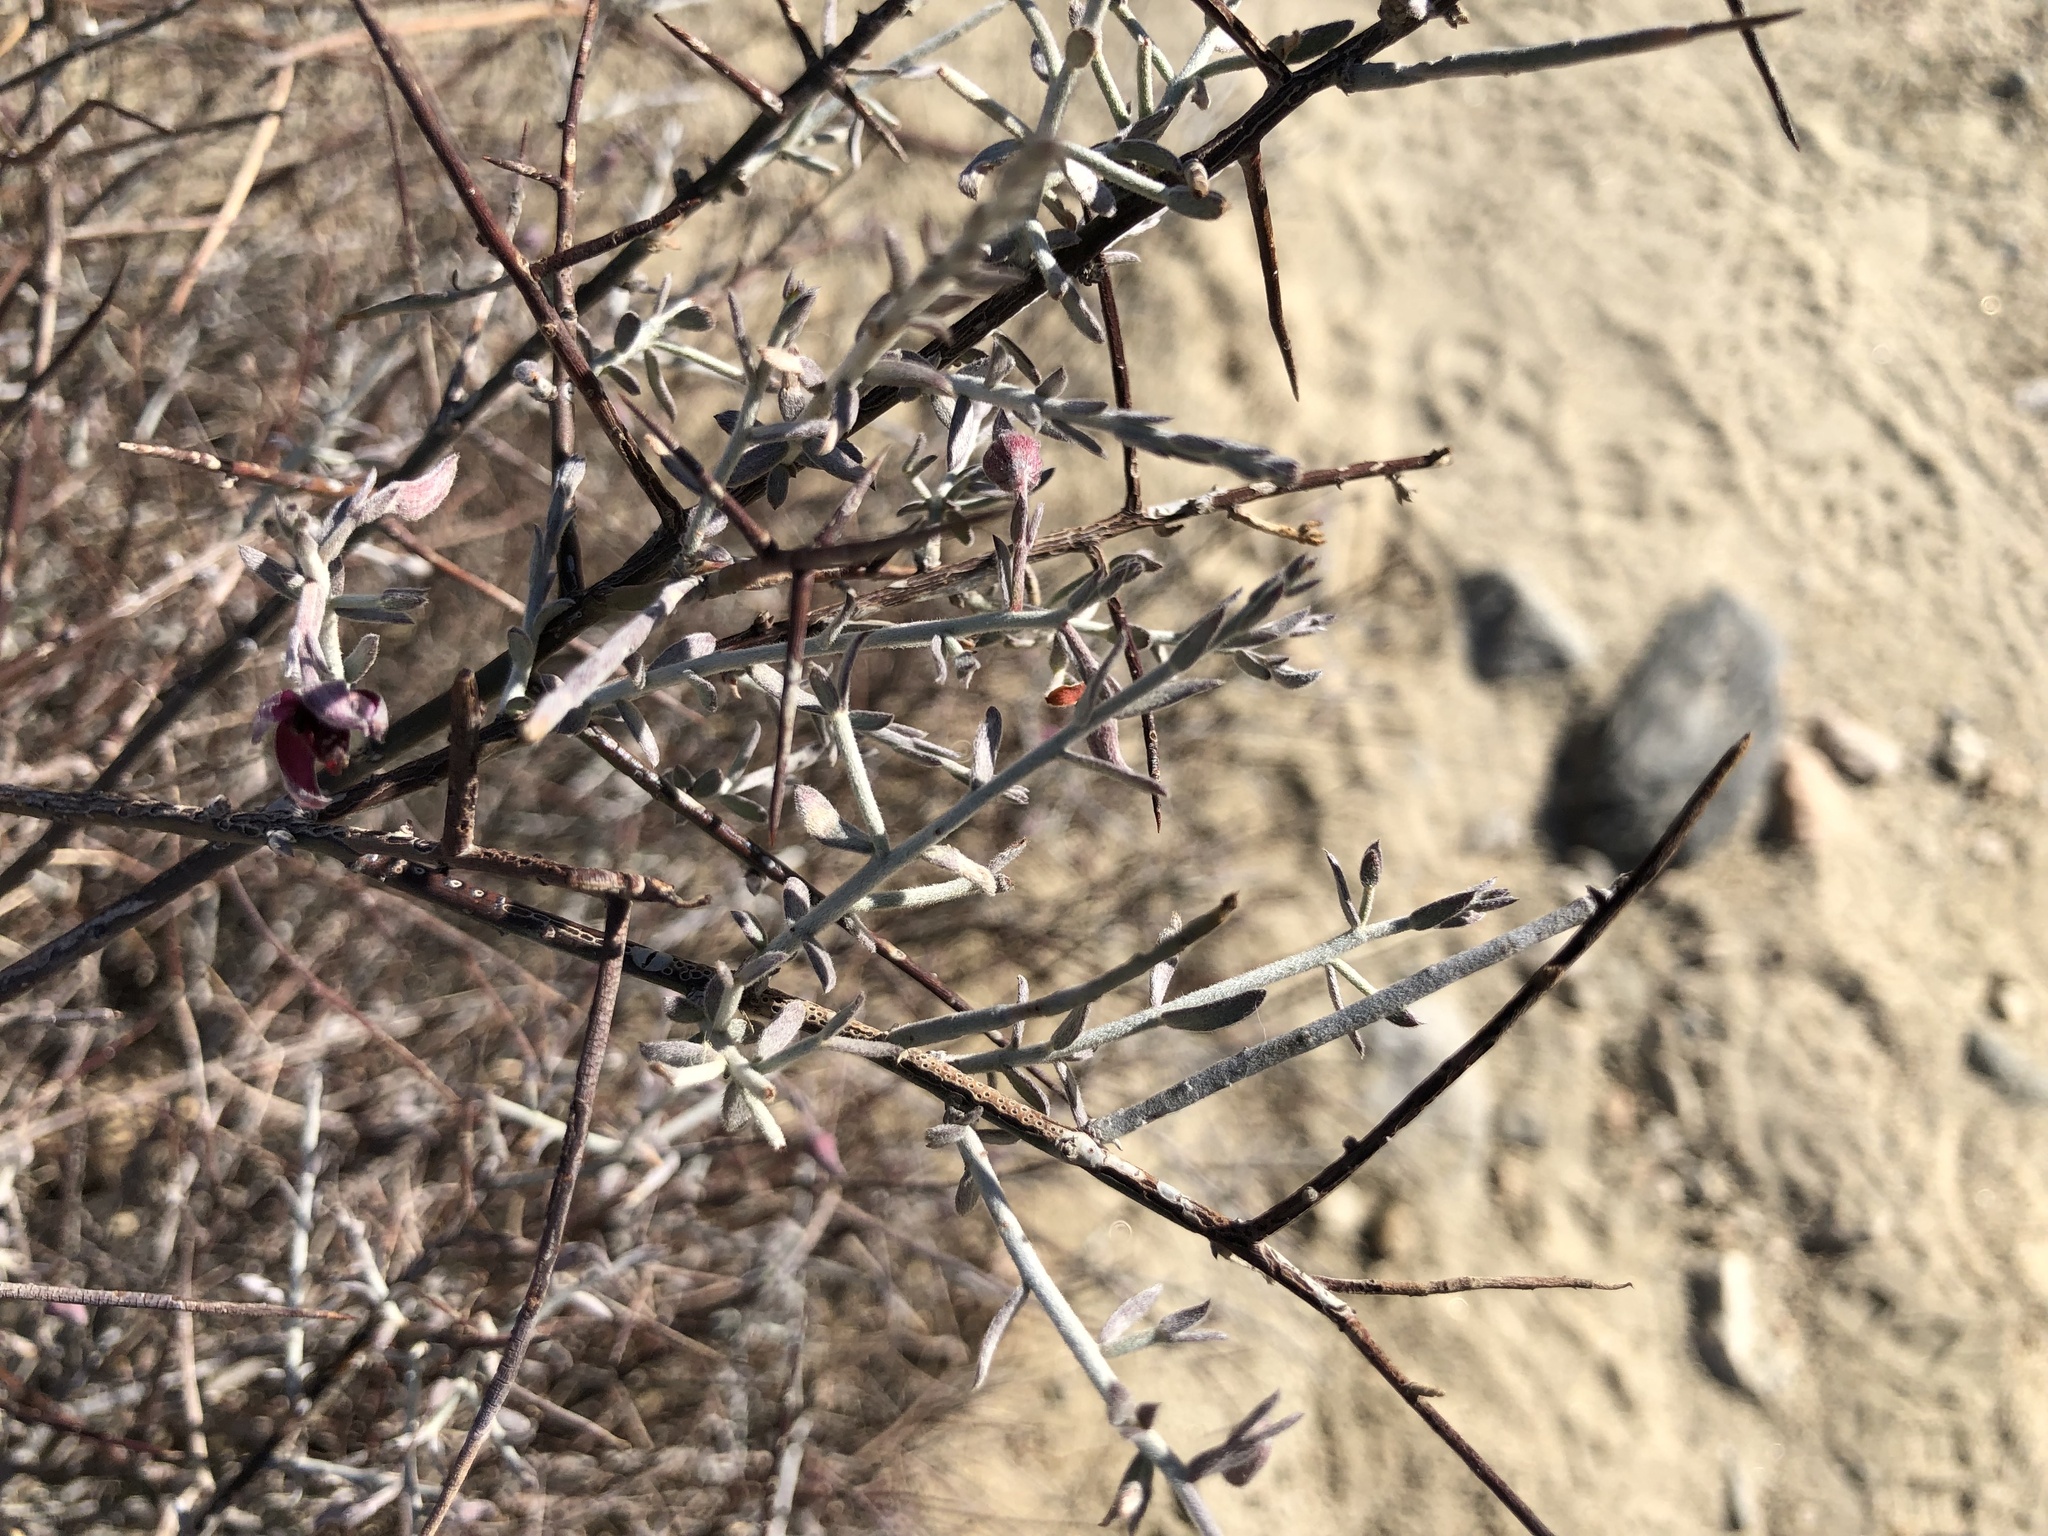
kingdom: Plantae
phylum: Tracheophyta
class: Magnoliopsida
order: Zygophyllales
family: Krameriaceae
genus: Krameria
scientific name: Krameria bicolor
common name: White ratany
